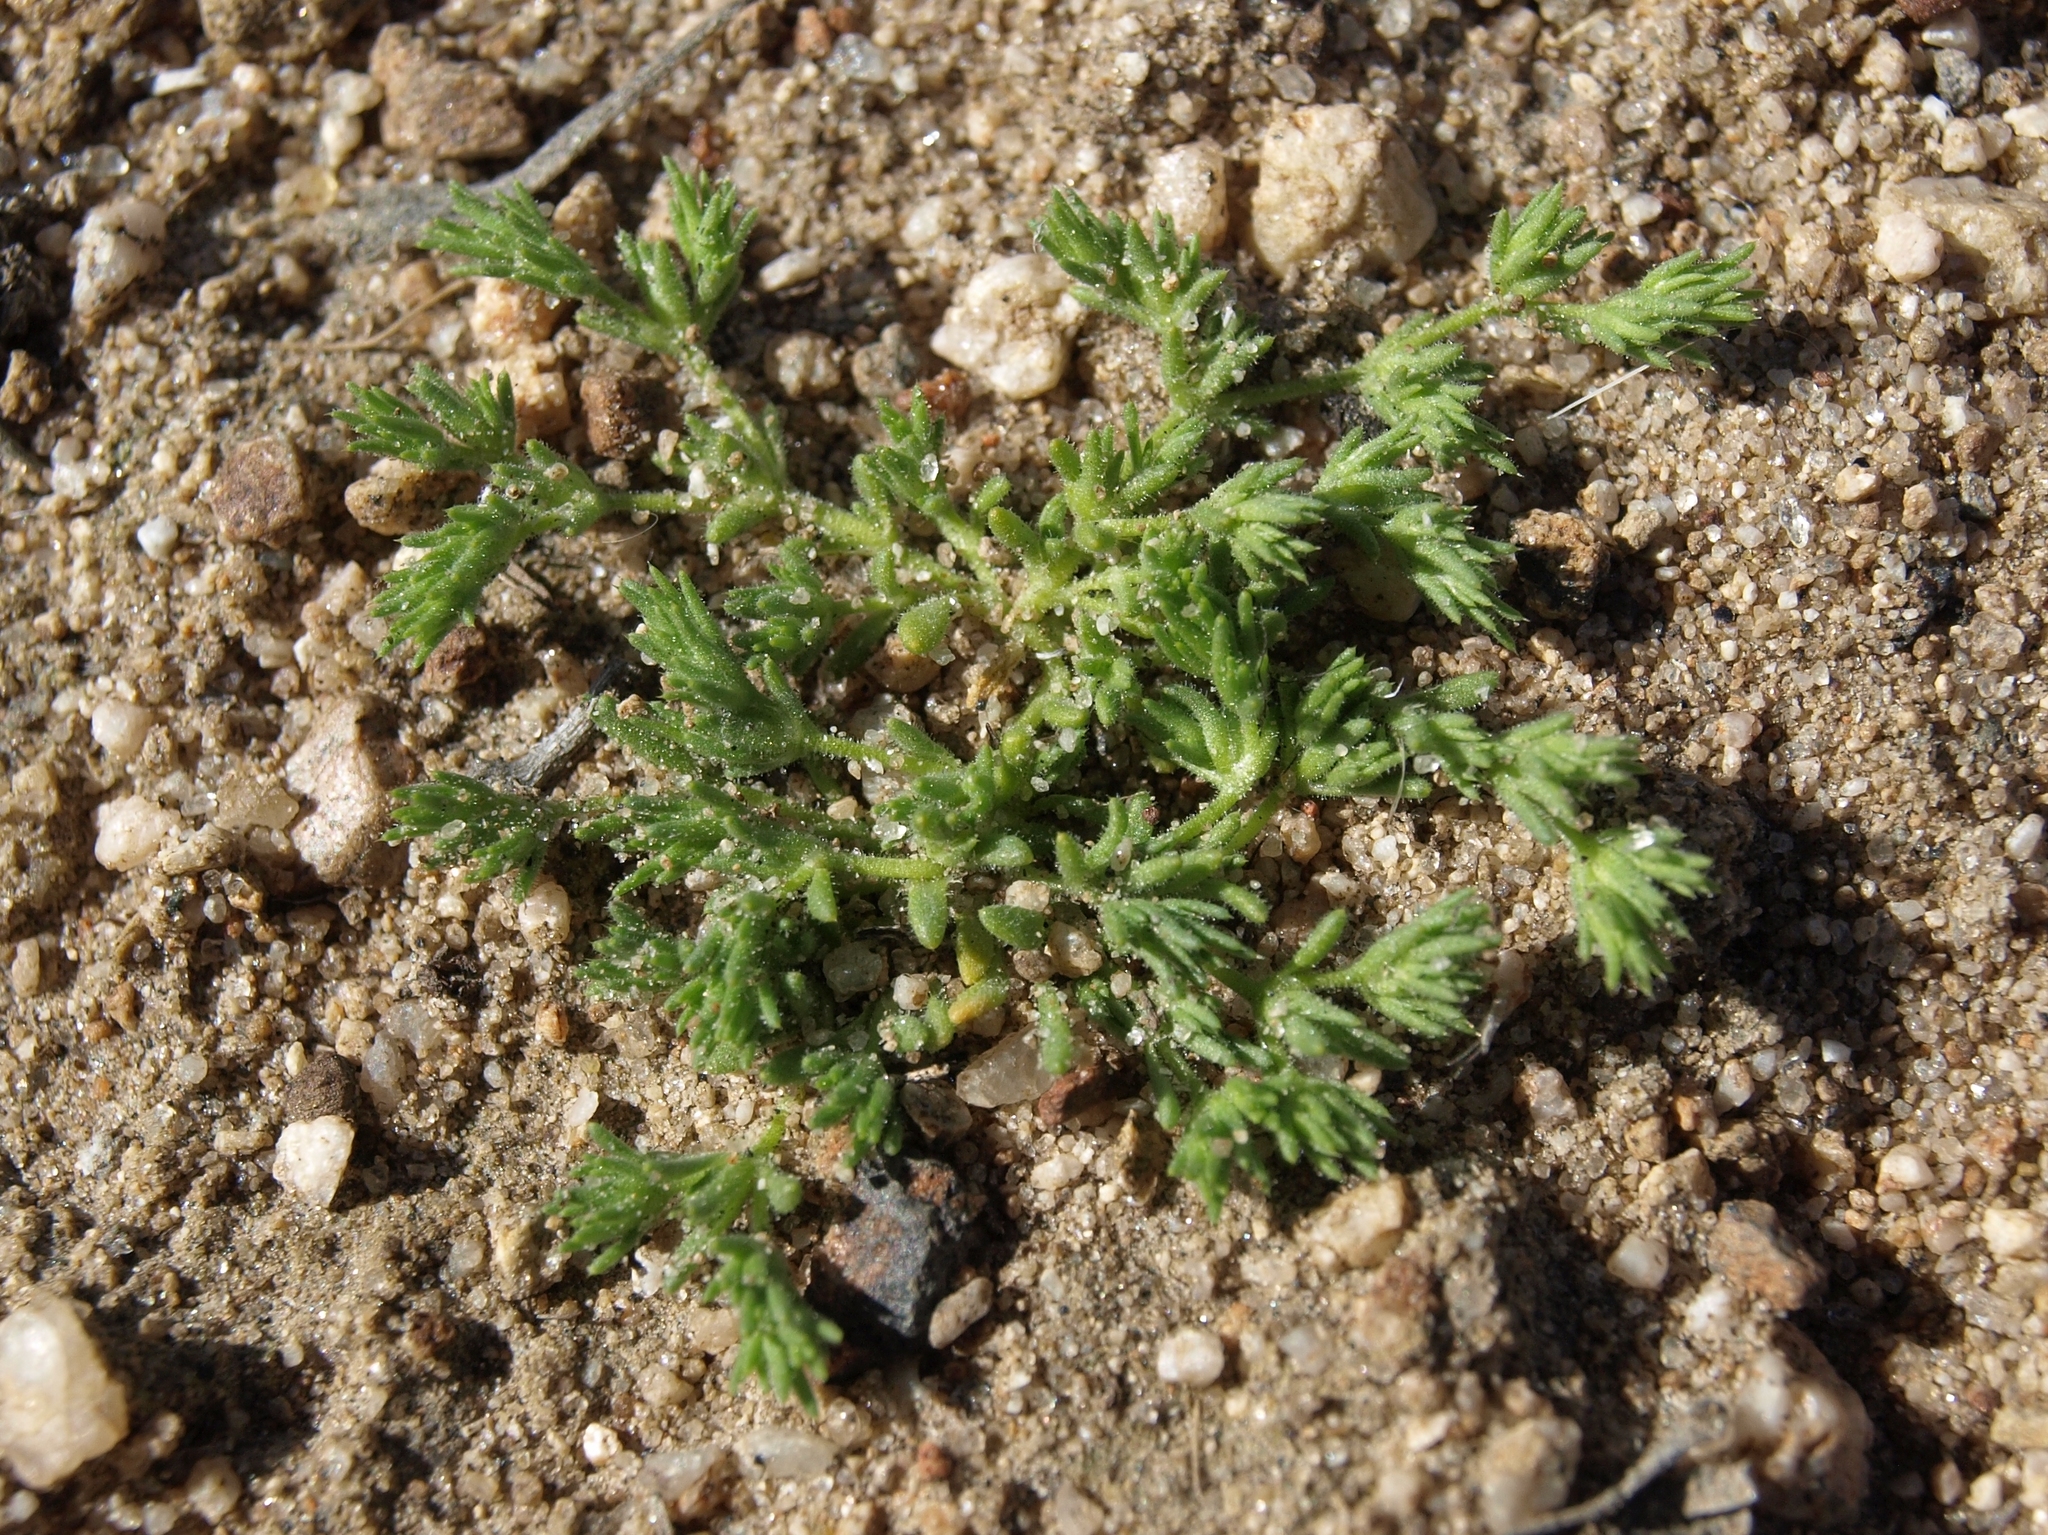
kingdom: Plantae
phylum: Tracheophyta
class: Magnoliopsida
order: Caryophyllales
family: Caryophyllaceae
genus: Loeflingia
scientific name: Loeflingia squarrosa
